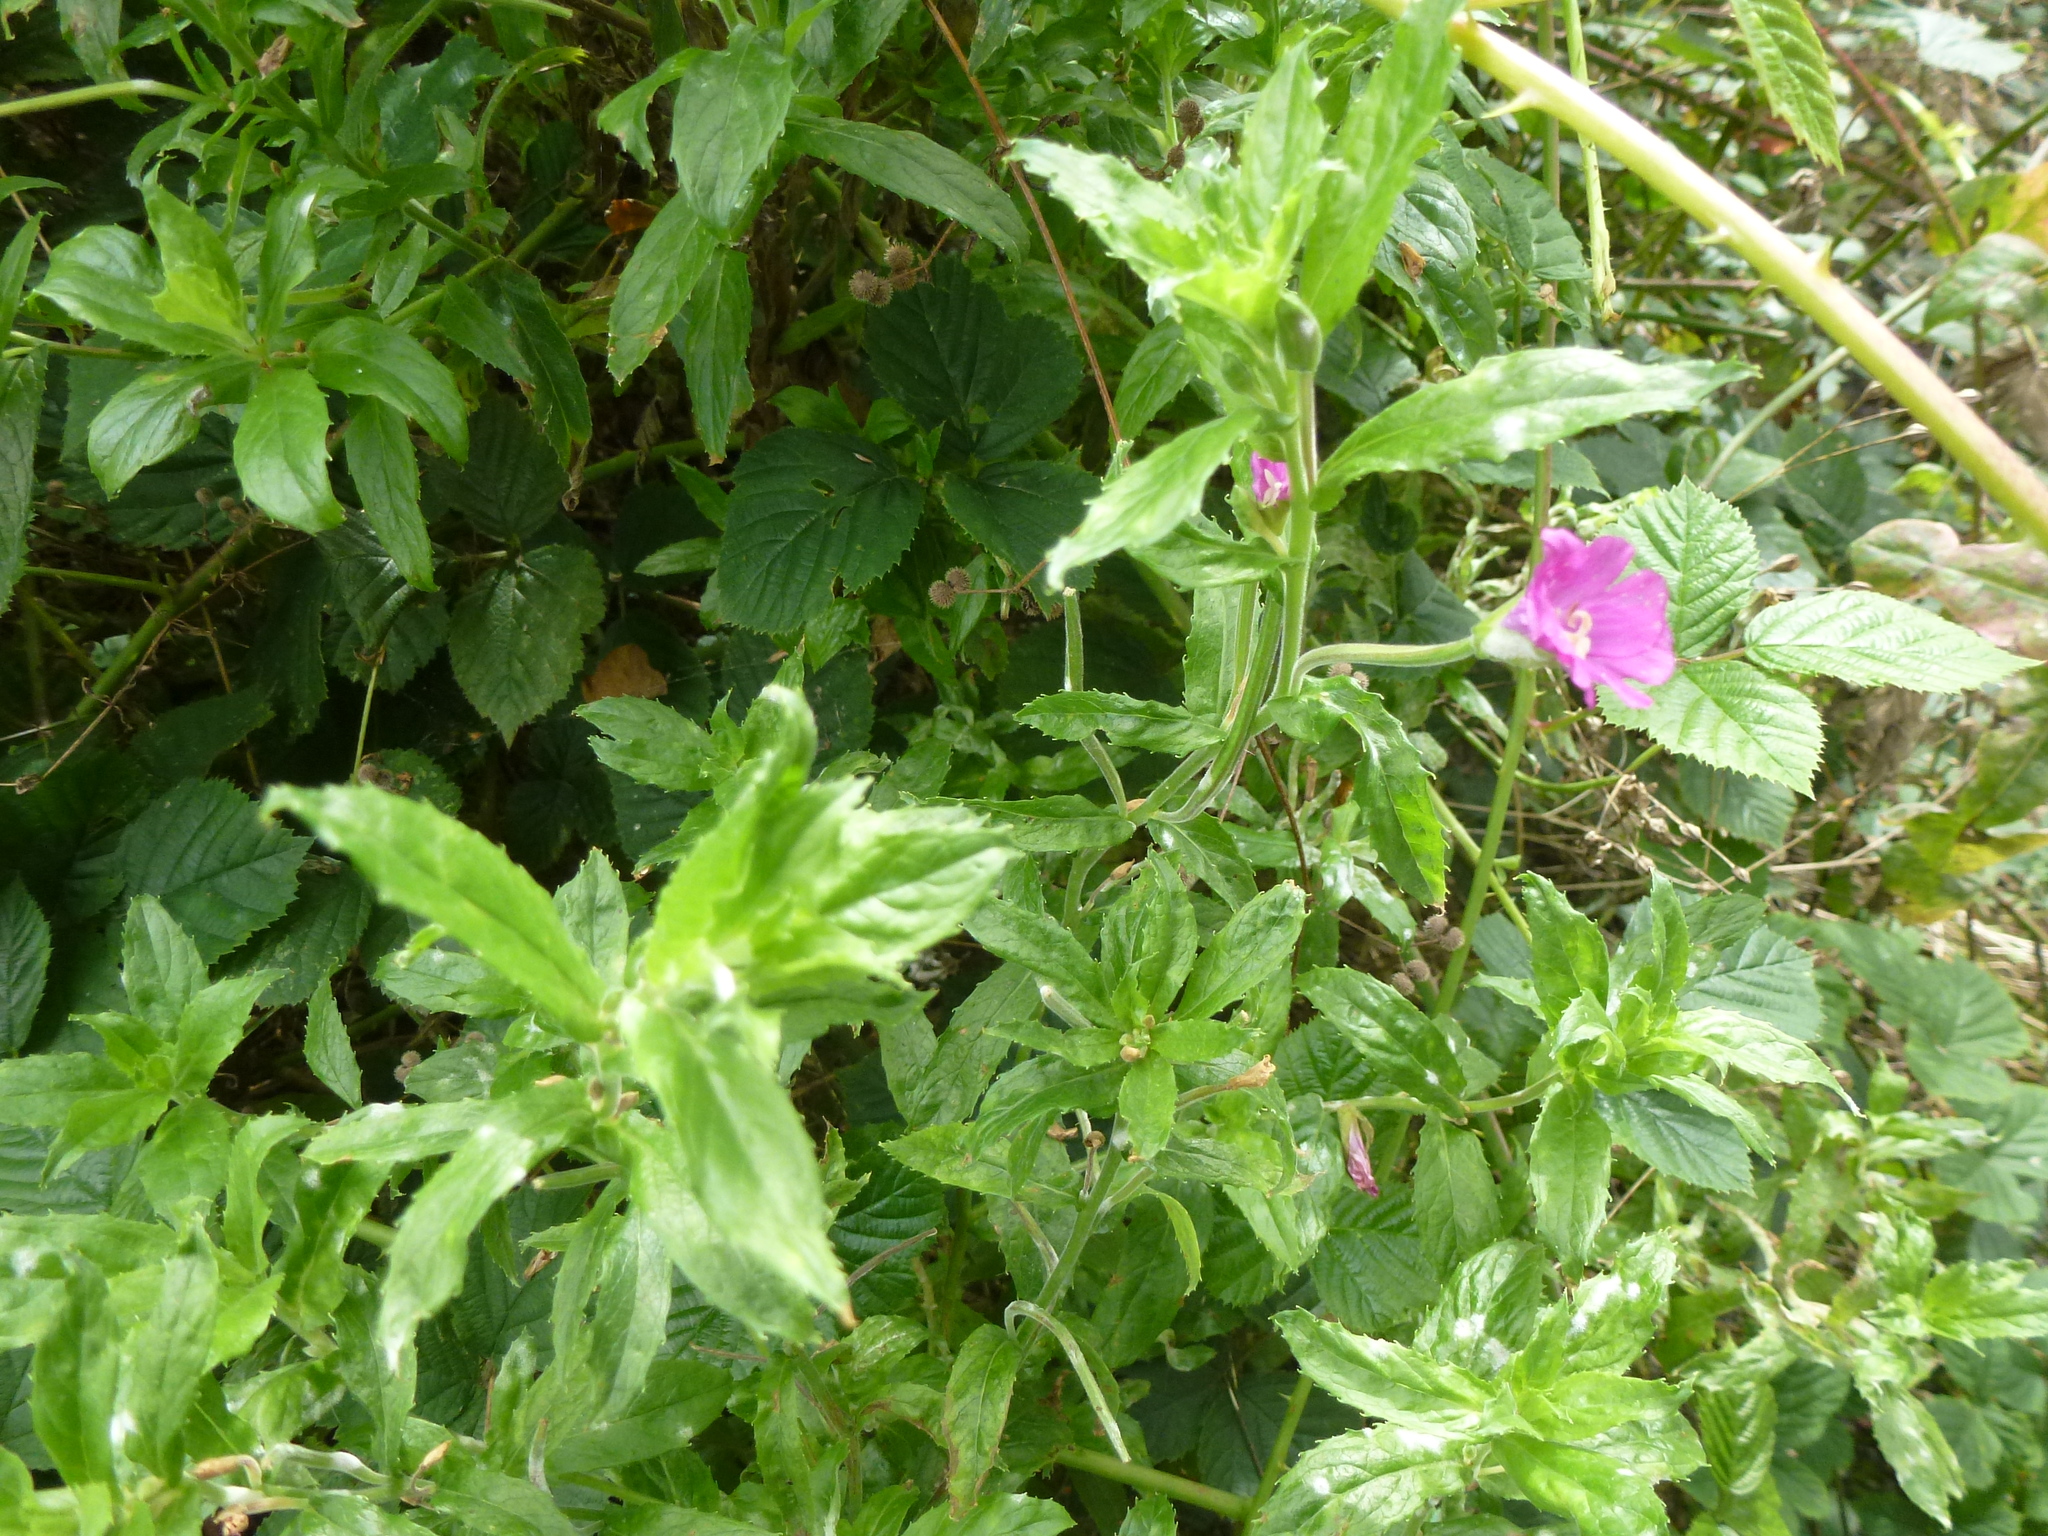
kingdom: Plantae
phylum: Tracheophyta
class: Magnoliopsida
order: Myrtales
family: Onagraceae
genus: Epilobium
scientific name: Epilobium hirsutum
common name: Great willowherb
